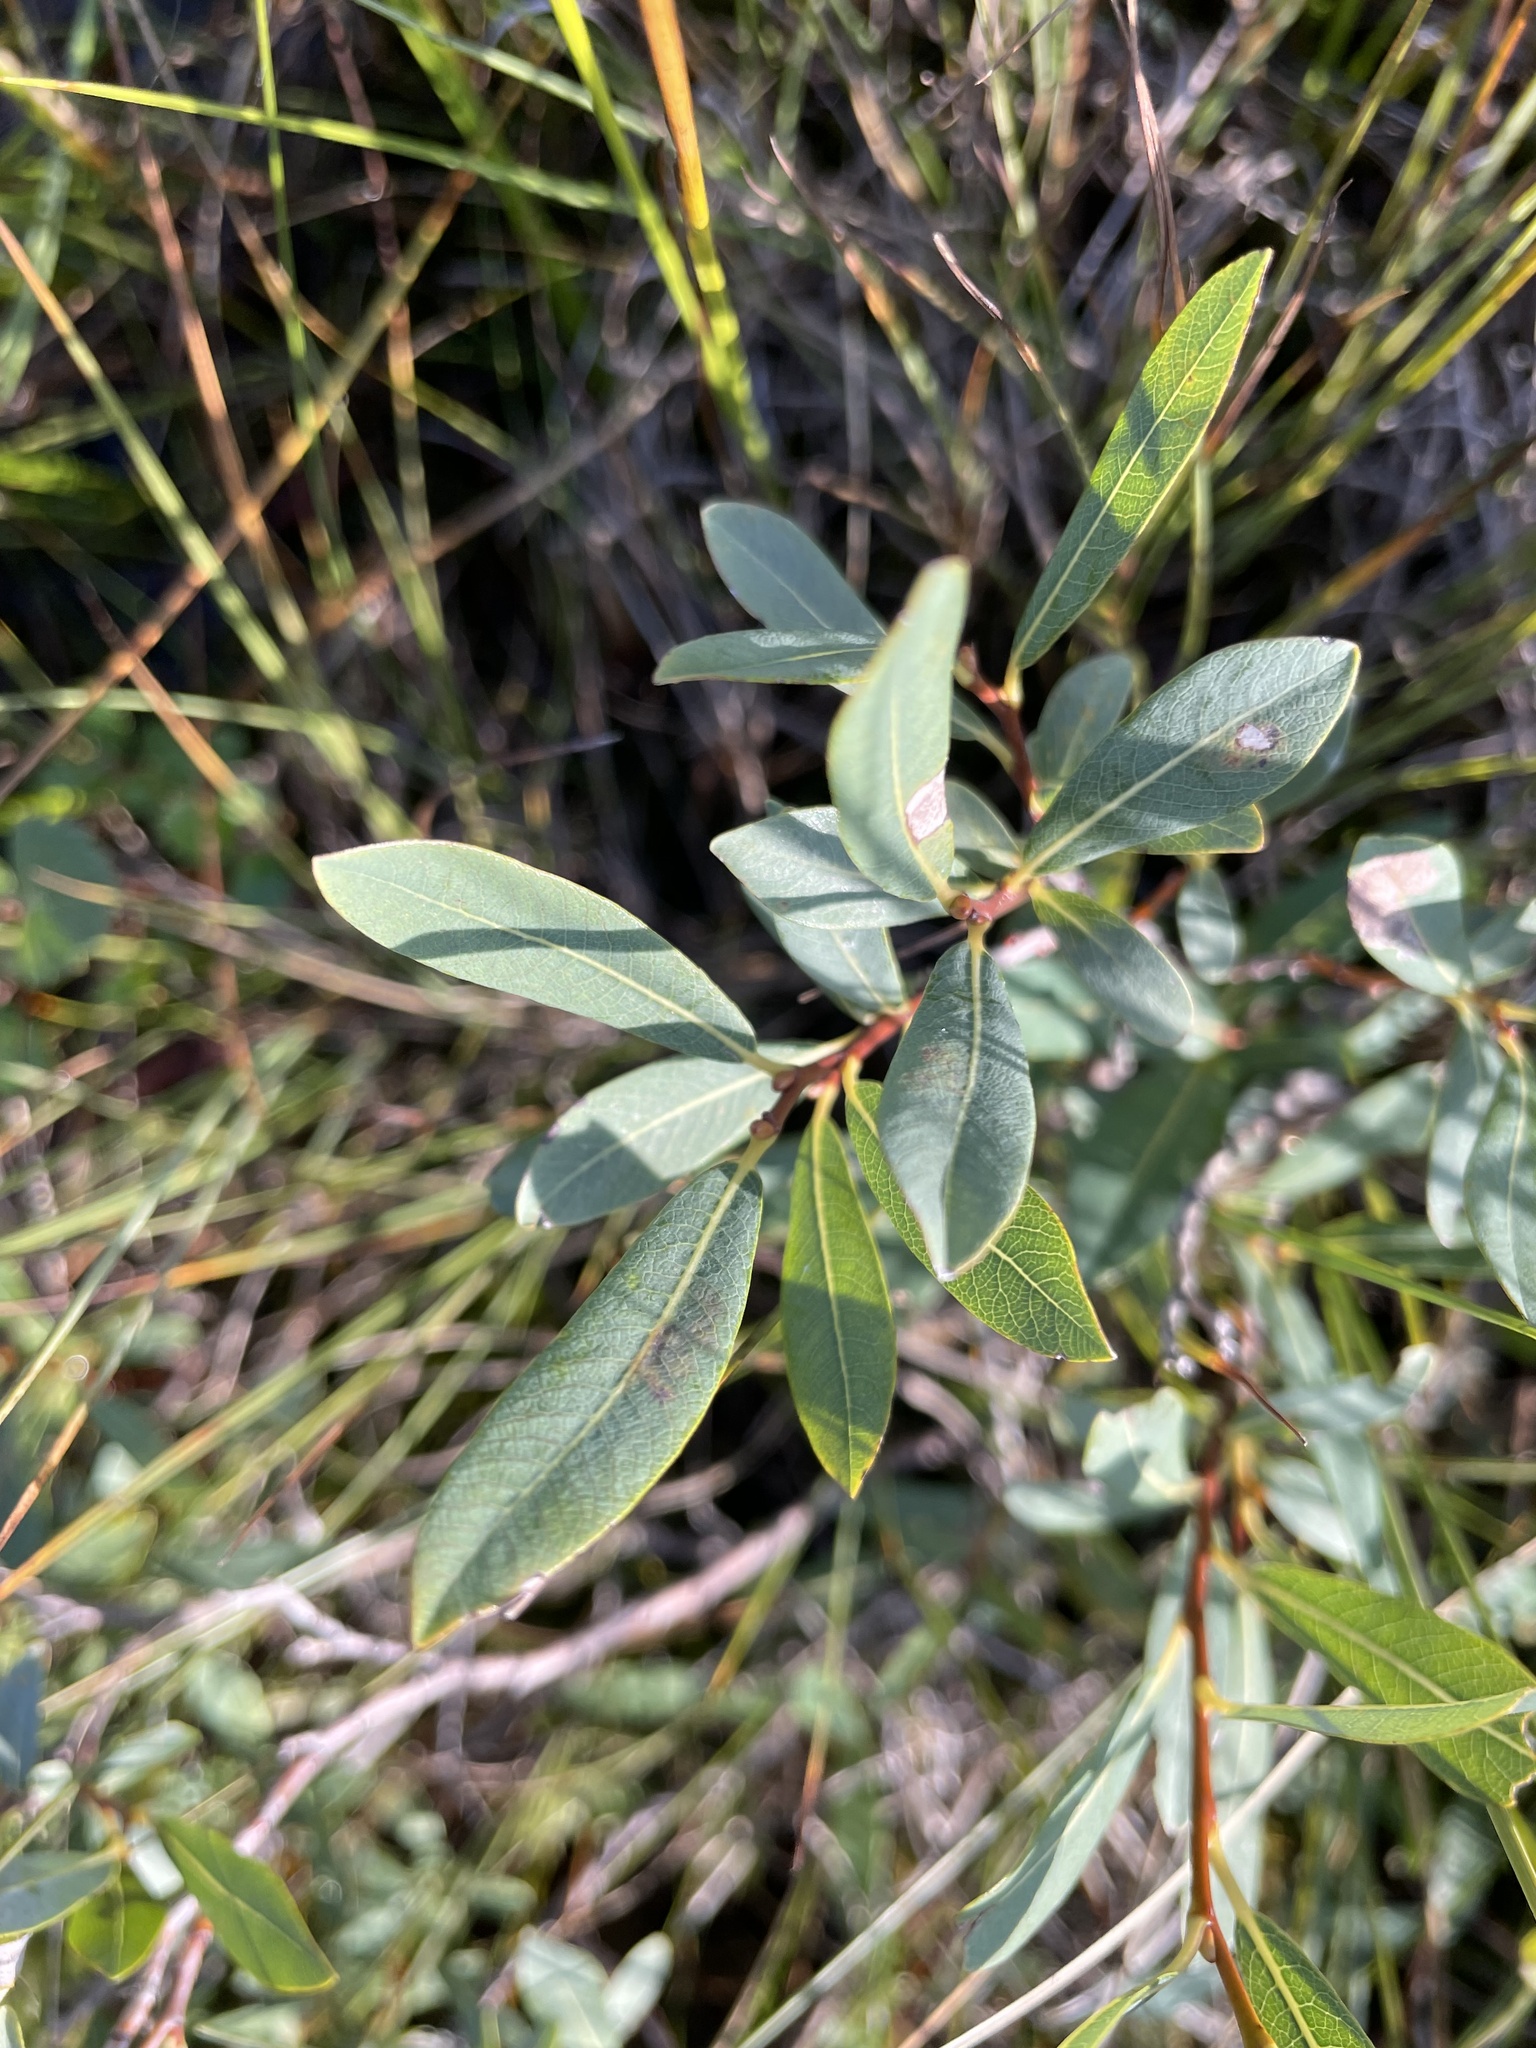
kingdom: Plantae
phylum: Tracheophyta
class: Magnoliopsida
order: Malpighiales
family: Salicaceae
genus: Salix
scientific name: Salix pedicellaris
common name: Bog willow
